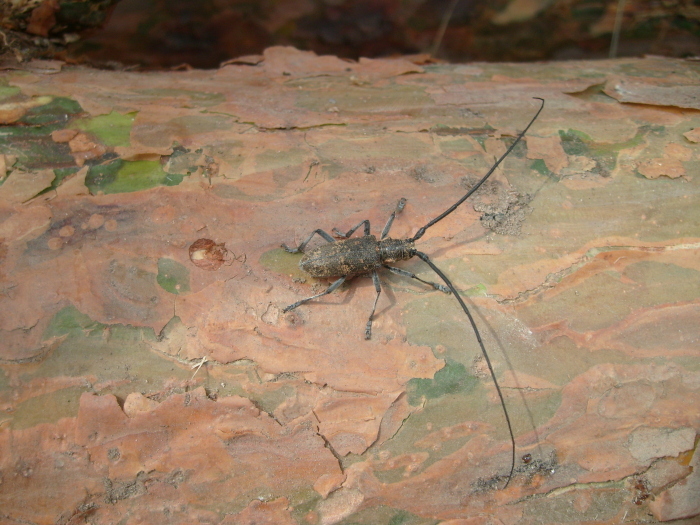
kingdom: Animalia
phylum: Arthropoda
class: Insecta
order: Coleoptera
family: Cerambycidae
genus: Monochamus
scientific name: Monochamus galloprovincialis
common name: Pine sawyer
